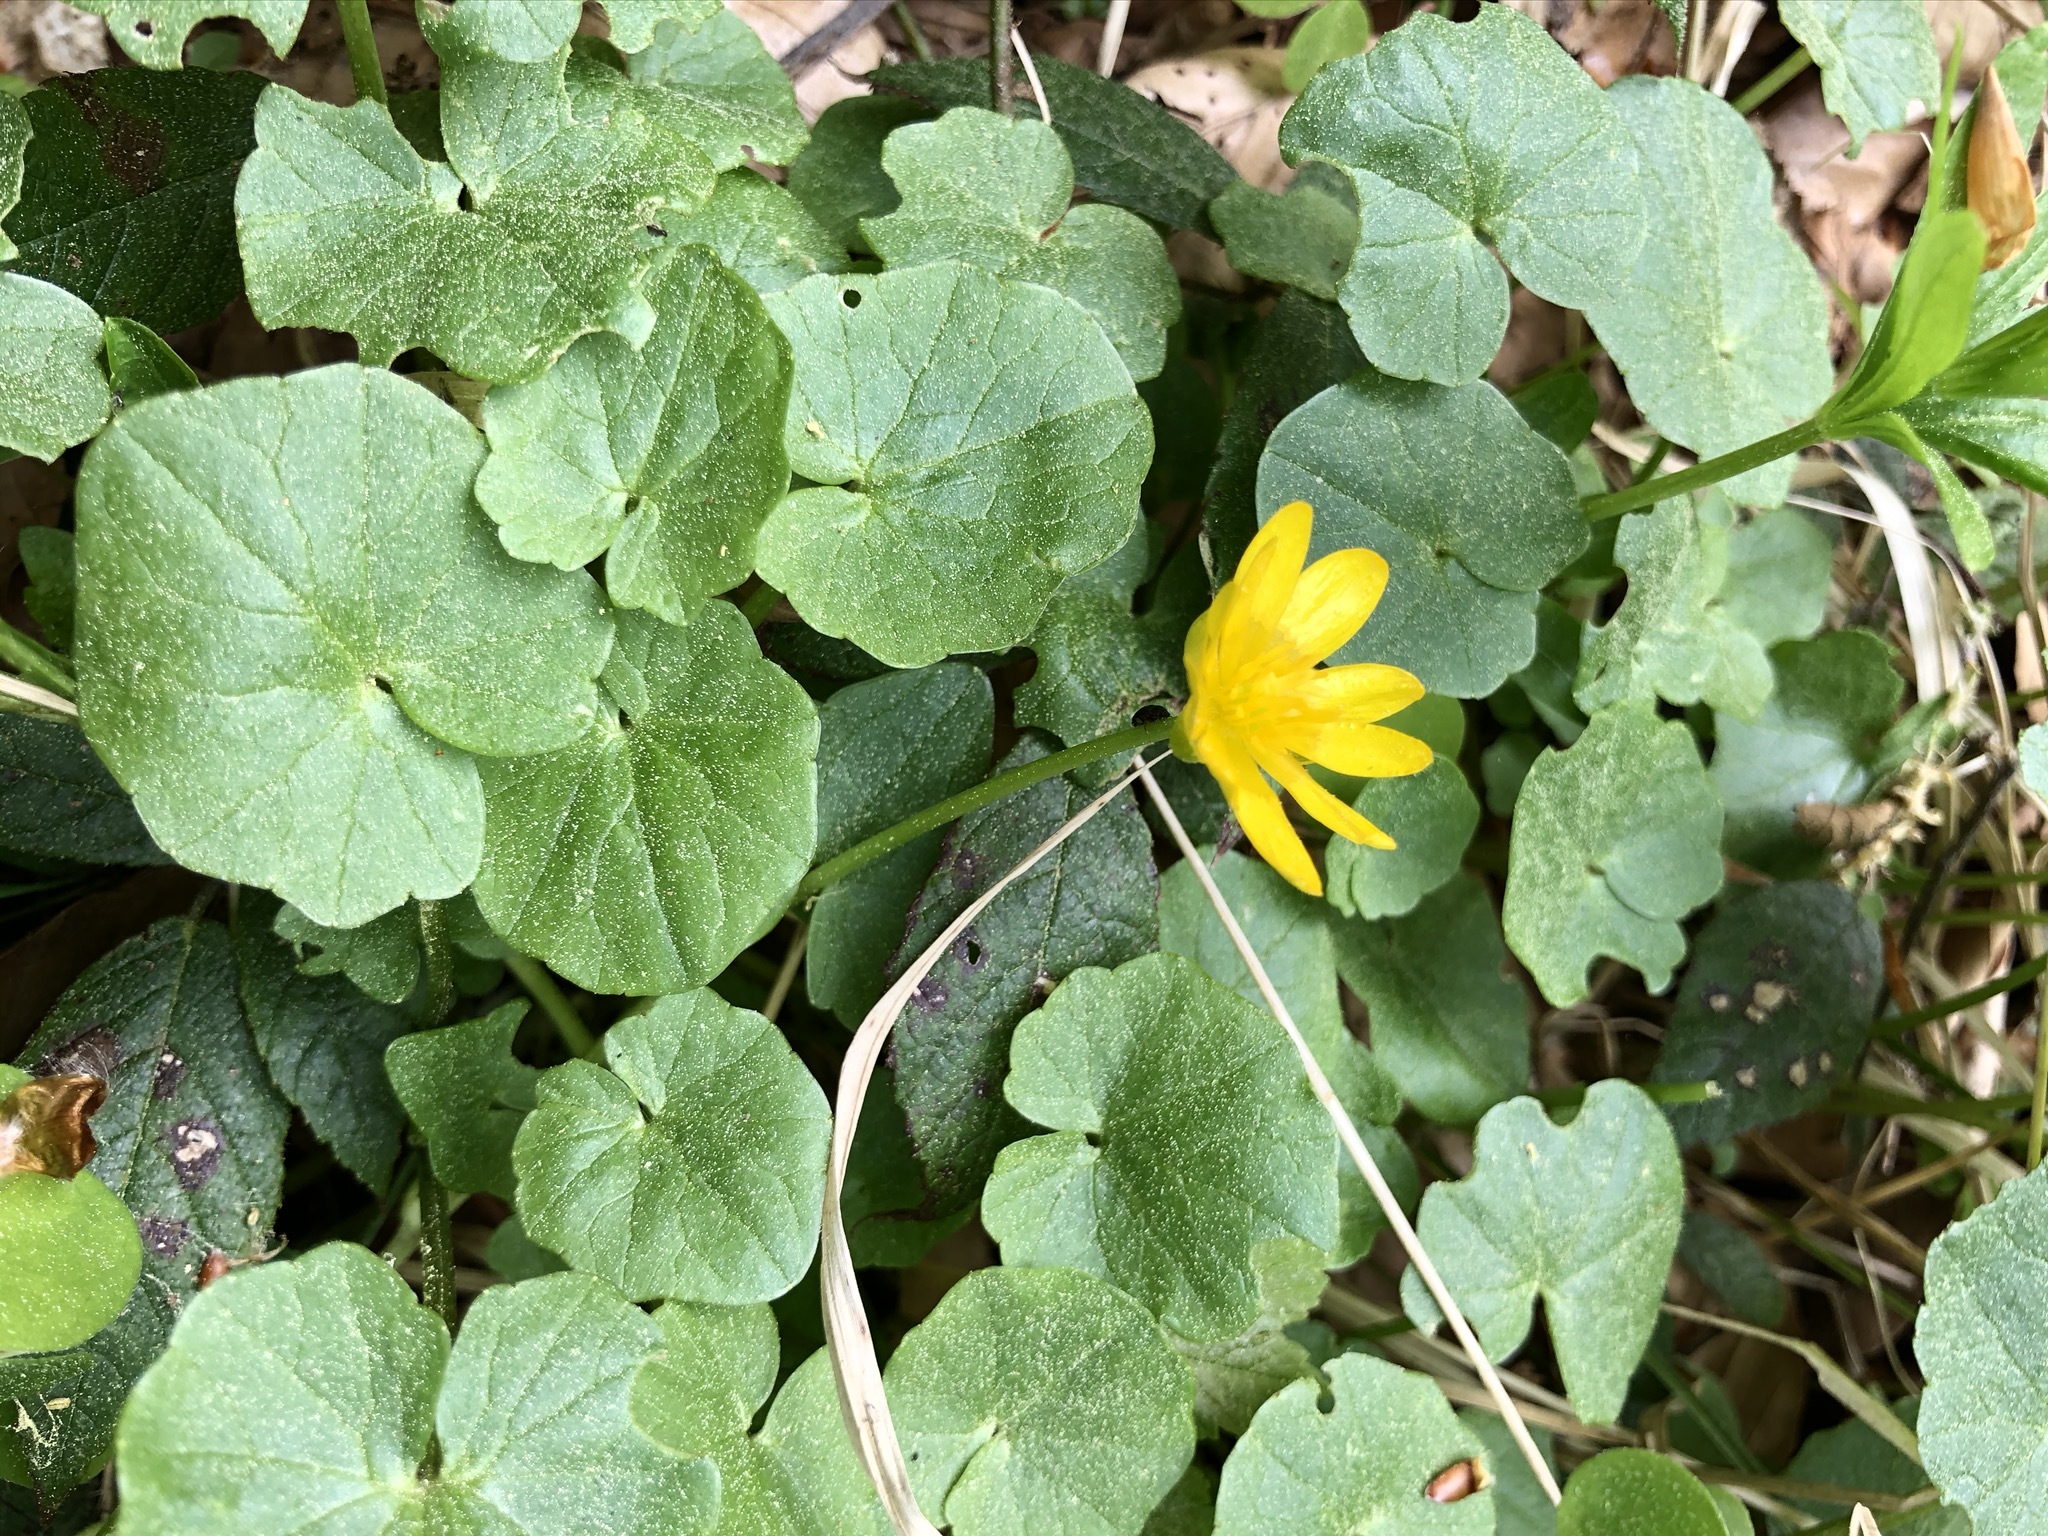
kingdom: Plantae
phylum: Tracheophyta
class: Magnoliopsida
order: Ranunculales
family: Ranunculaceae
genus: Ficaria
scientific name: Ficaria verna
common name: Lesser celandine
